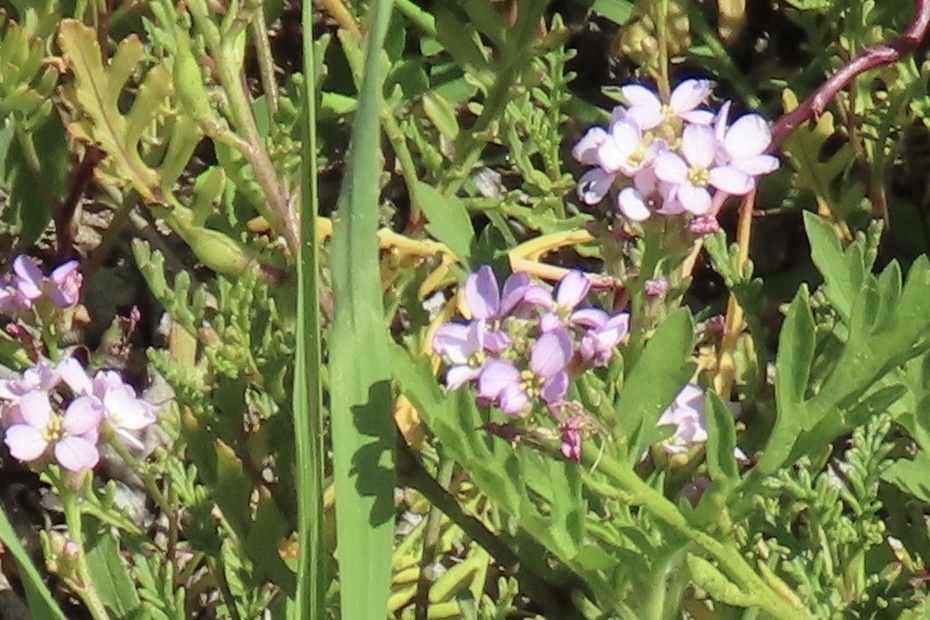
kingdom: Plantae
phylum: Tracheophyta
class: Magnoliopsida
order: Brassicales
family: Brassicaceae
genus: Cakile
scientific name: Cakile maritima
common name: Sea rocket
